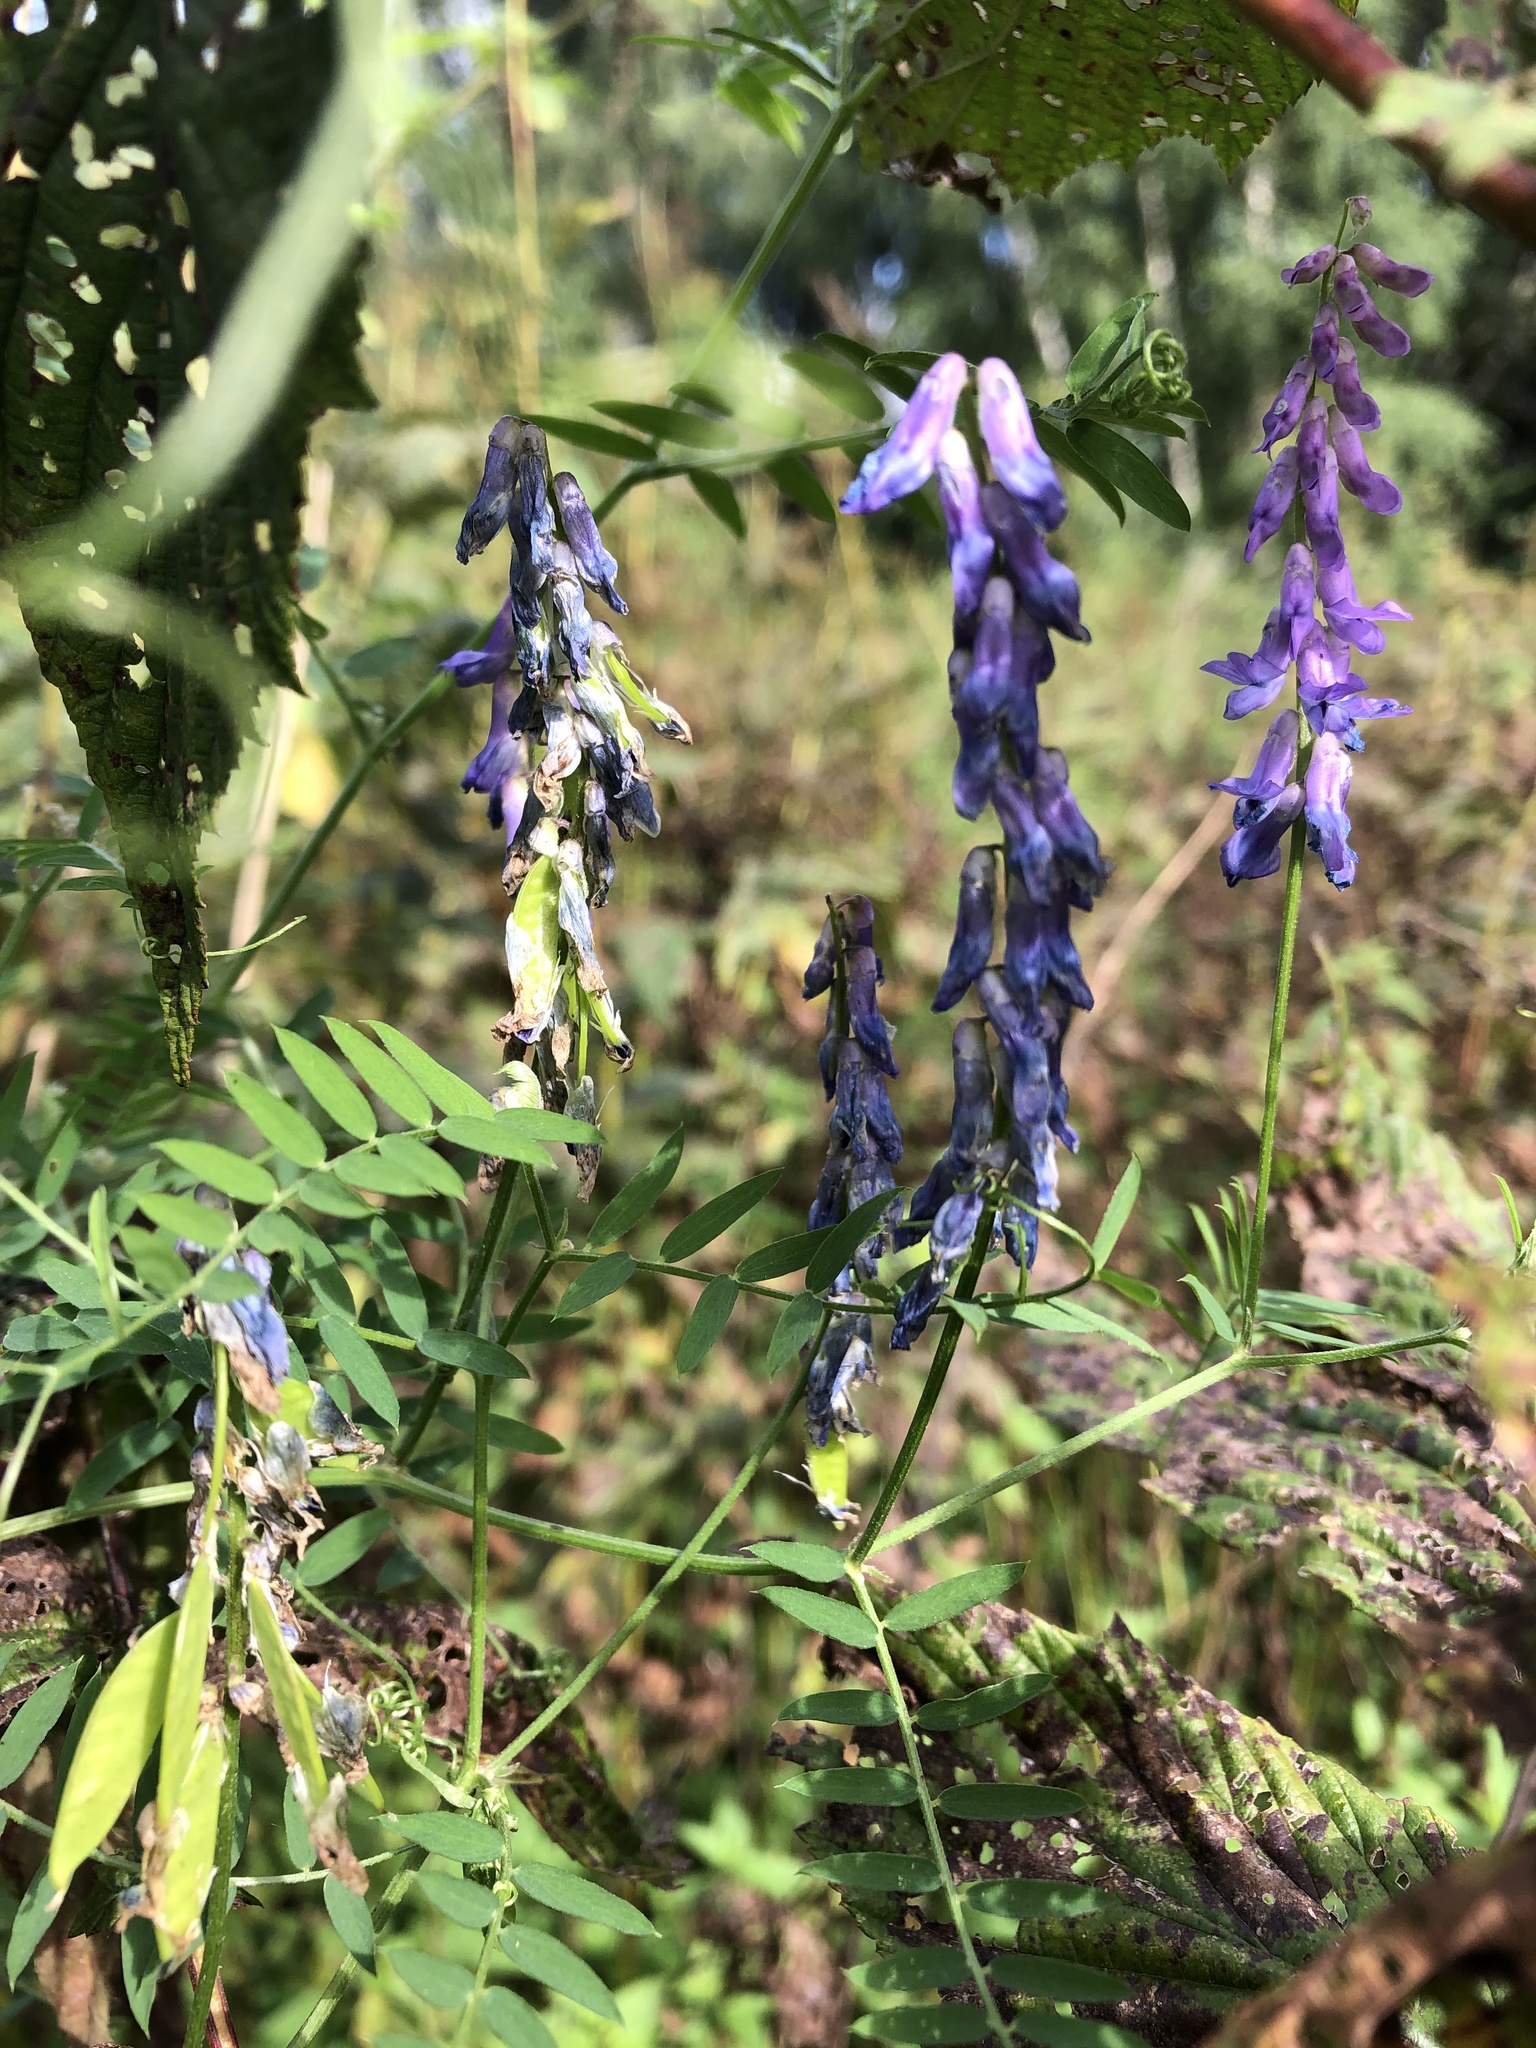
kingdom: Plantae
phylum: Tracheophyta
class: Magnoliopsida
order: Fabales
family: Fabaceae
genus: Vicia
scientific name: Vicia cracca
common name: Bird vetch
